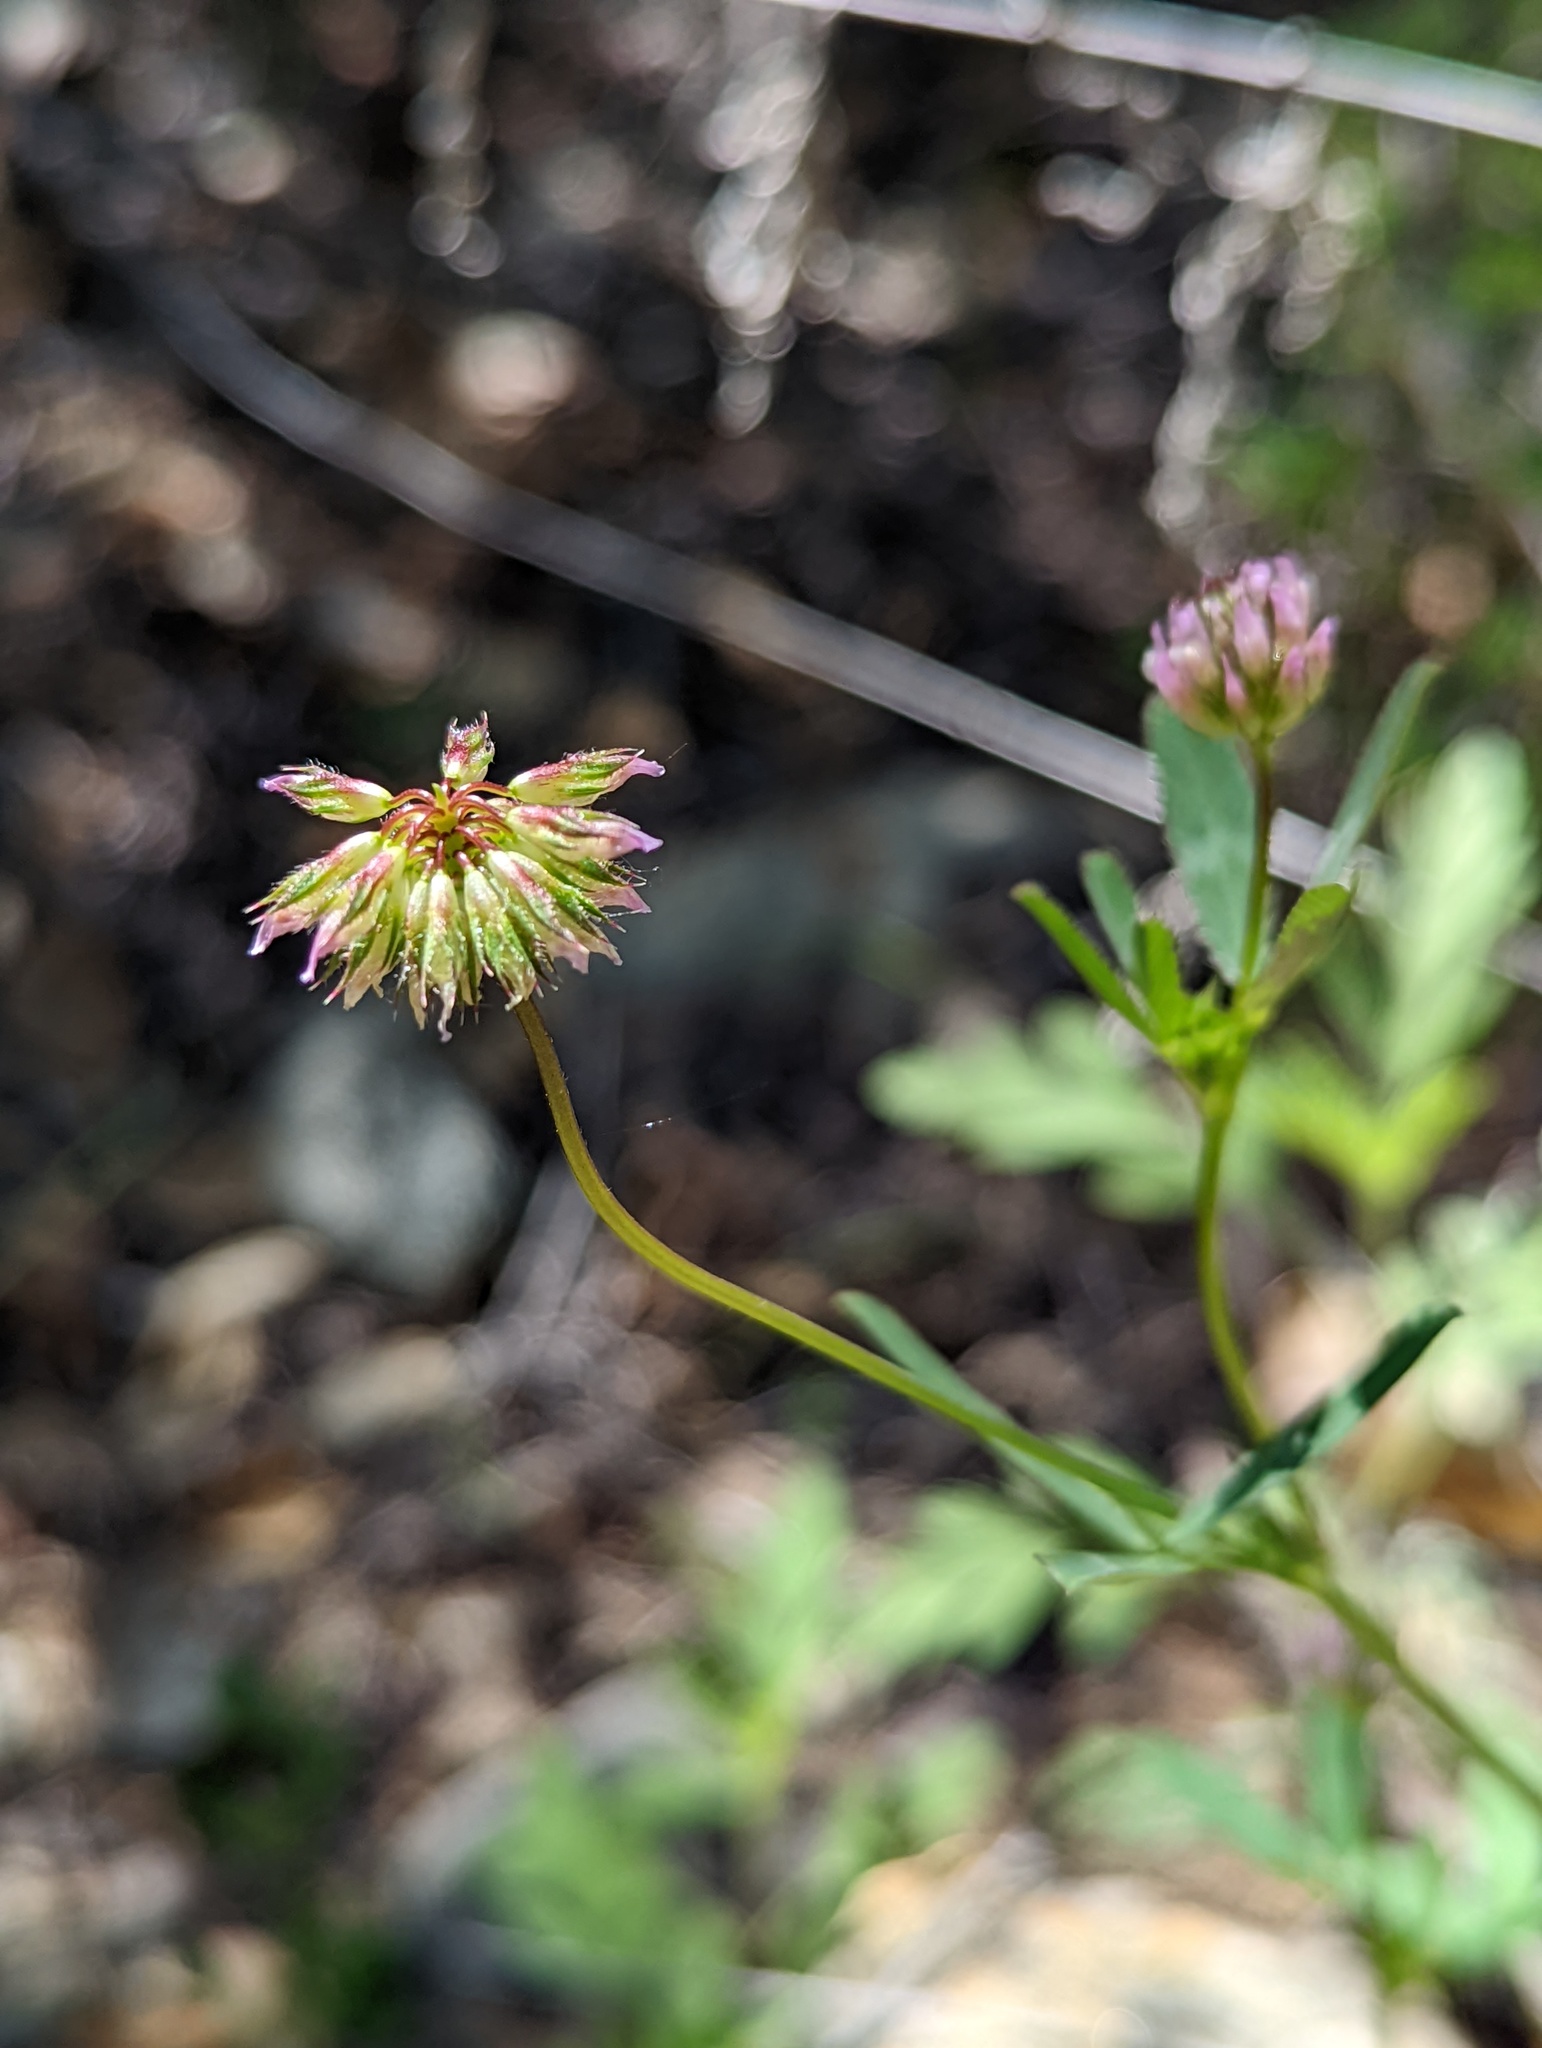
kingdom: Plantae
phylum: Tracheophyta
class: Magnoliopsida
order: Fabales
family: Fabaceae
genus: Trifolium
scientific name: Trifolium ciliolatum
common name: Foothill clover
